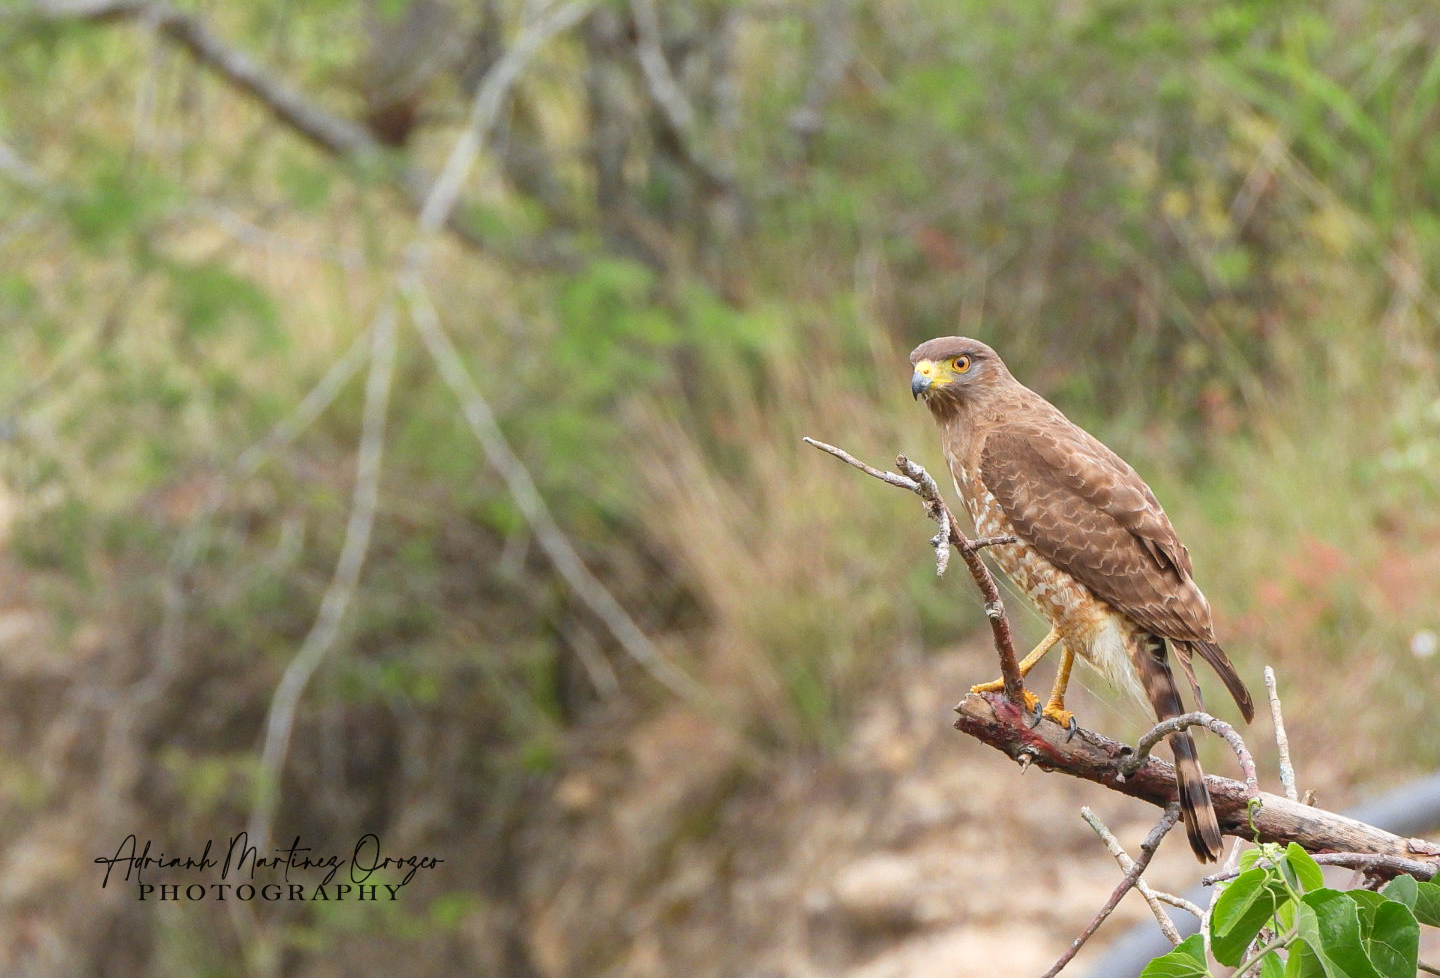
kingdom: Animalia
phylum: Chordata
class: Aves
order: Accipitriformes
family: Accipitridae
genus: Rupornis
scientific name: Rupornis magnirostris
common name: Roadside hawk
